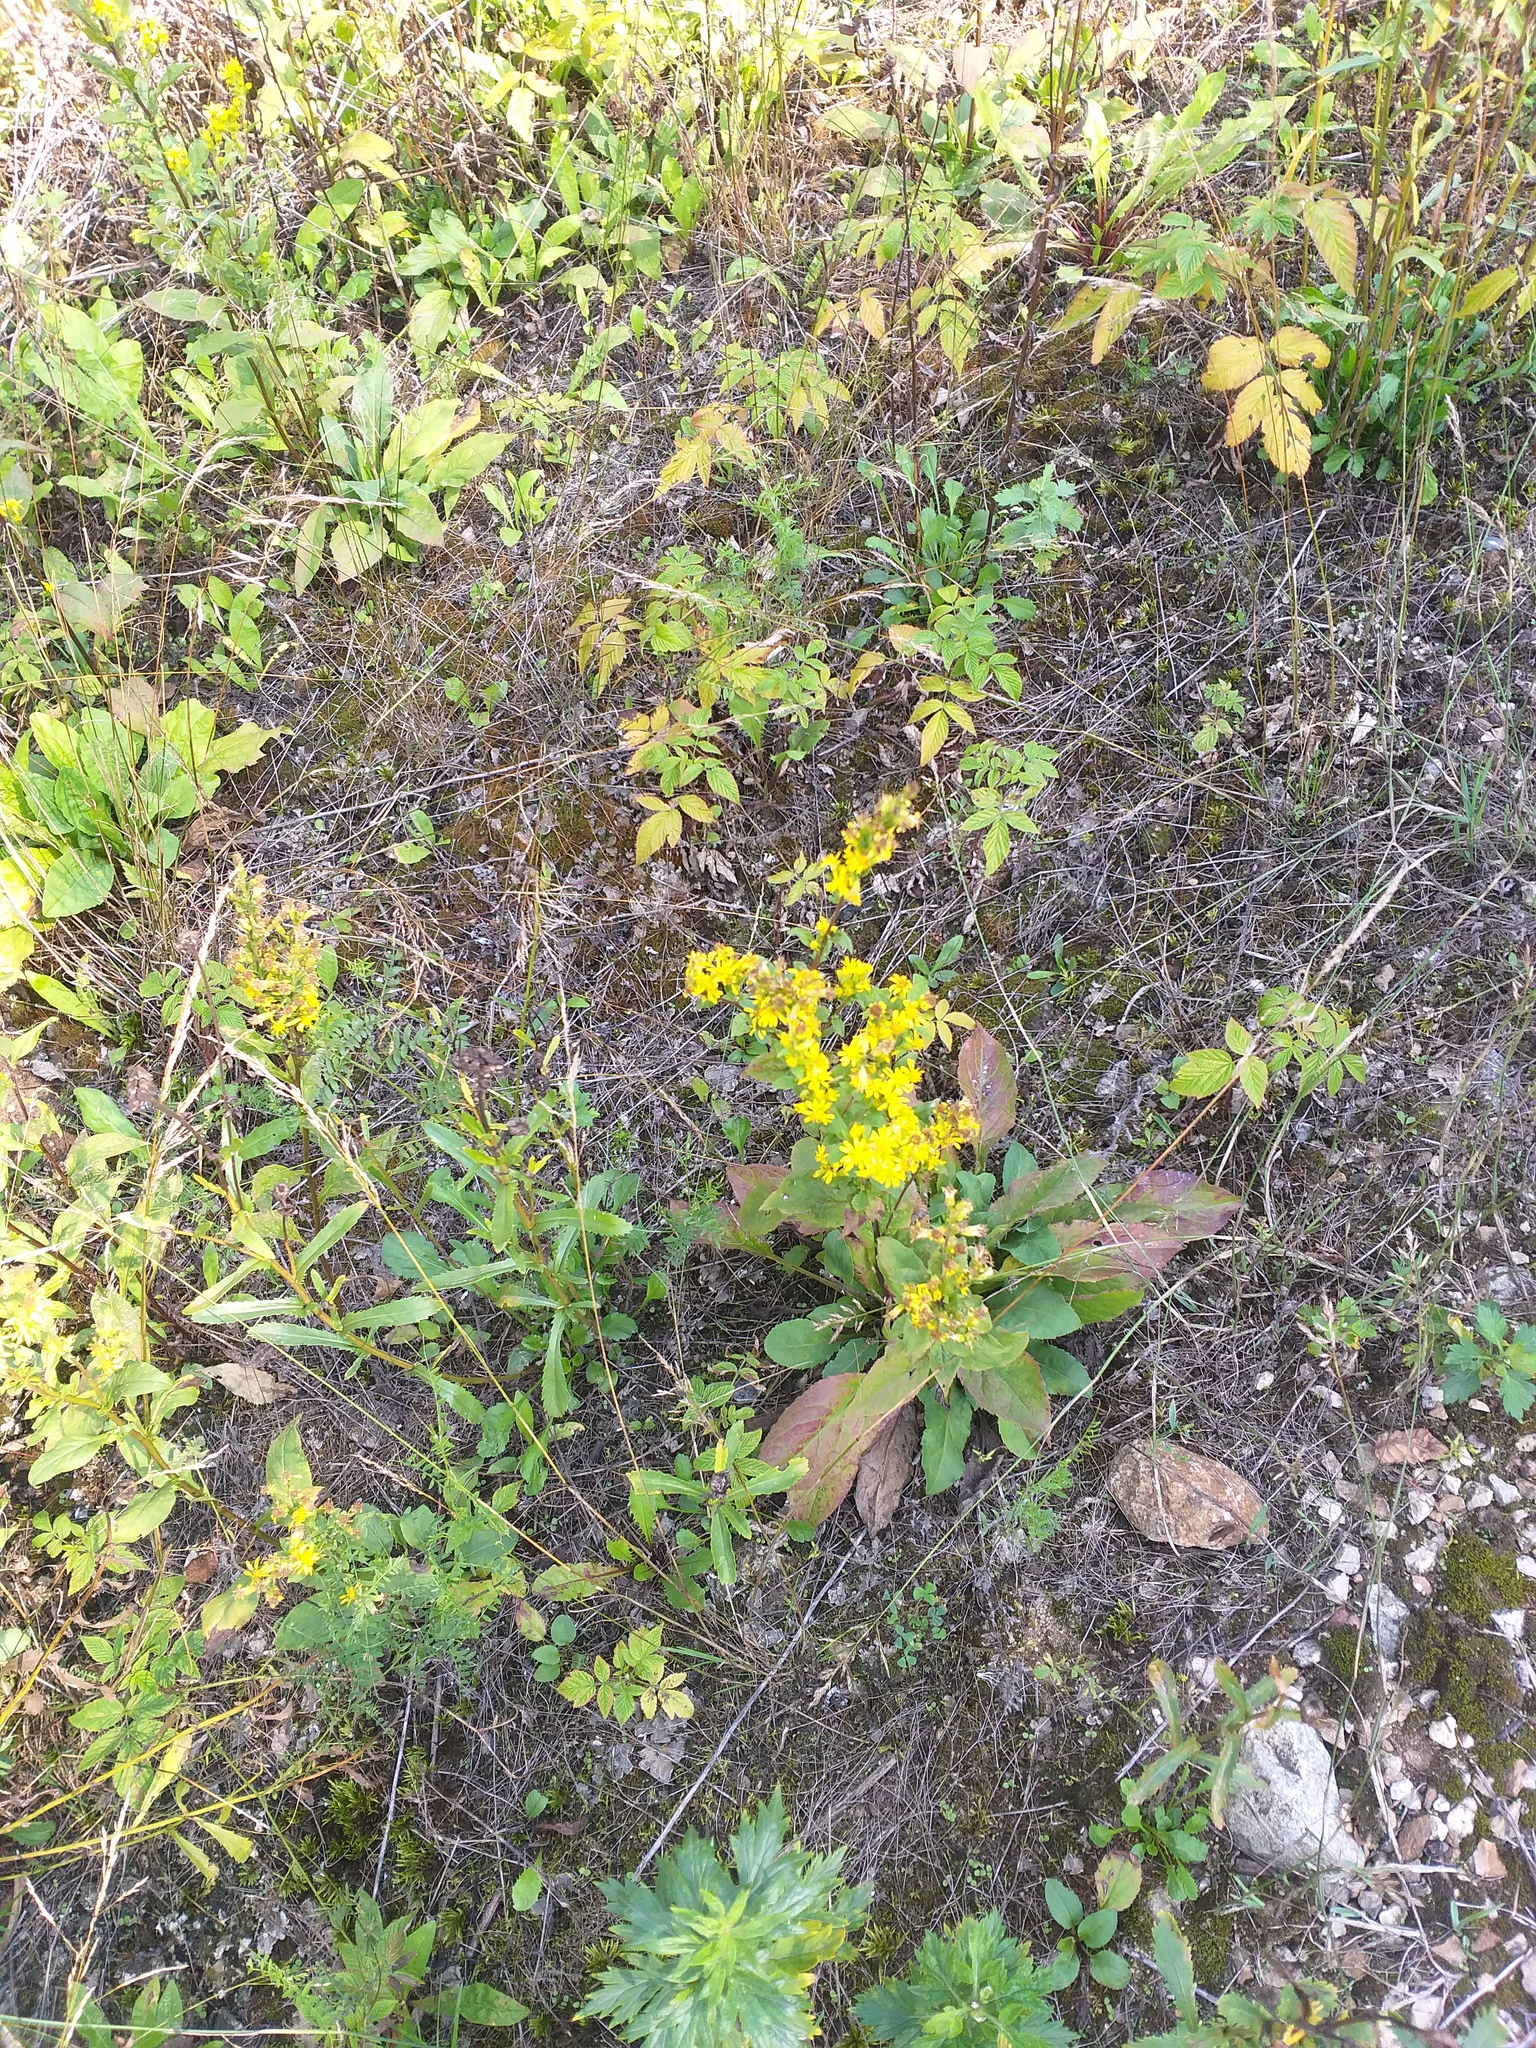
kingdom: Plantae
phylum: Tracheophyta
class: Magnoliopsida
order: Asterales
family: Asteraceae
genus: Solidago
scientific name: Solidago virgaurea
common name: Goldenrod
